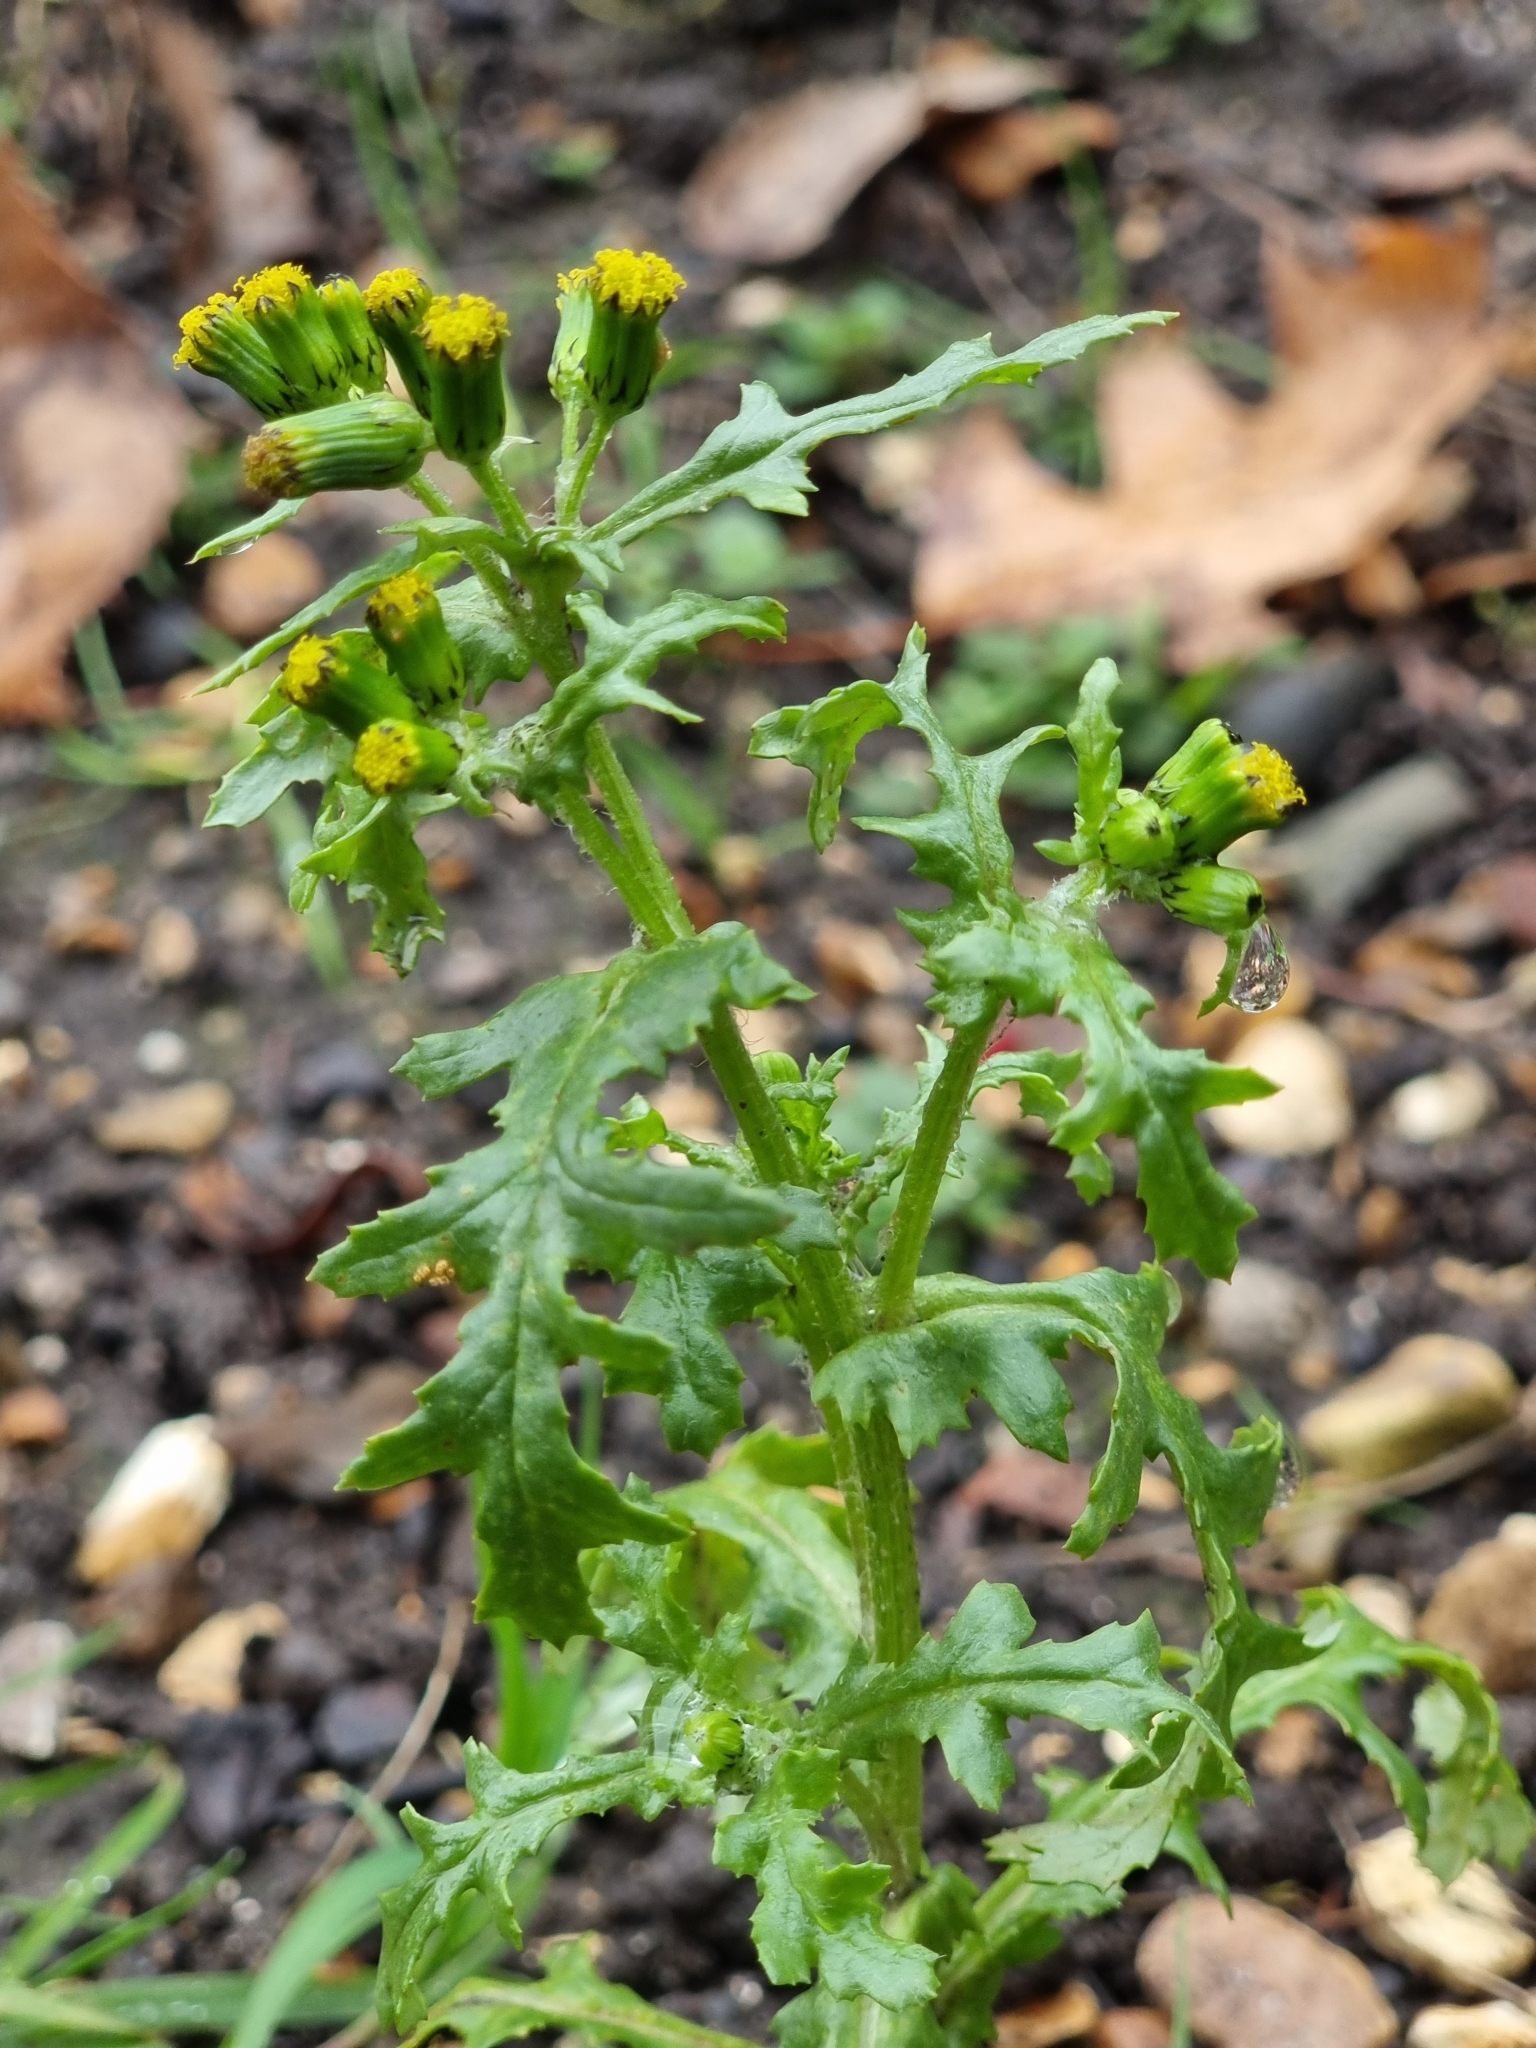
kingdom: Plantae
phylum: Tracheophyta
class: Magnoliopsida
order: Asterales
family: Asteraceae
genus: Senecio
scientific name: Senecio vulgaris
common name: Old-man-in-the-spring
